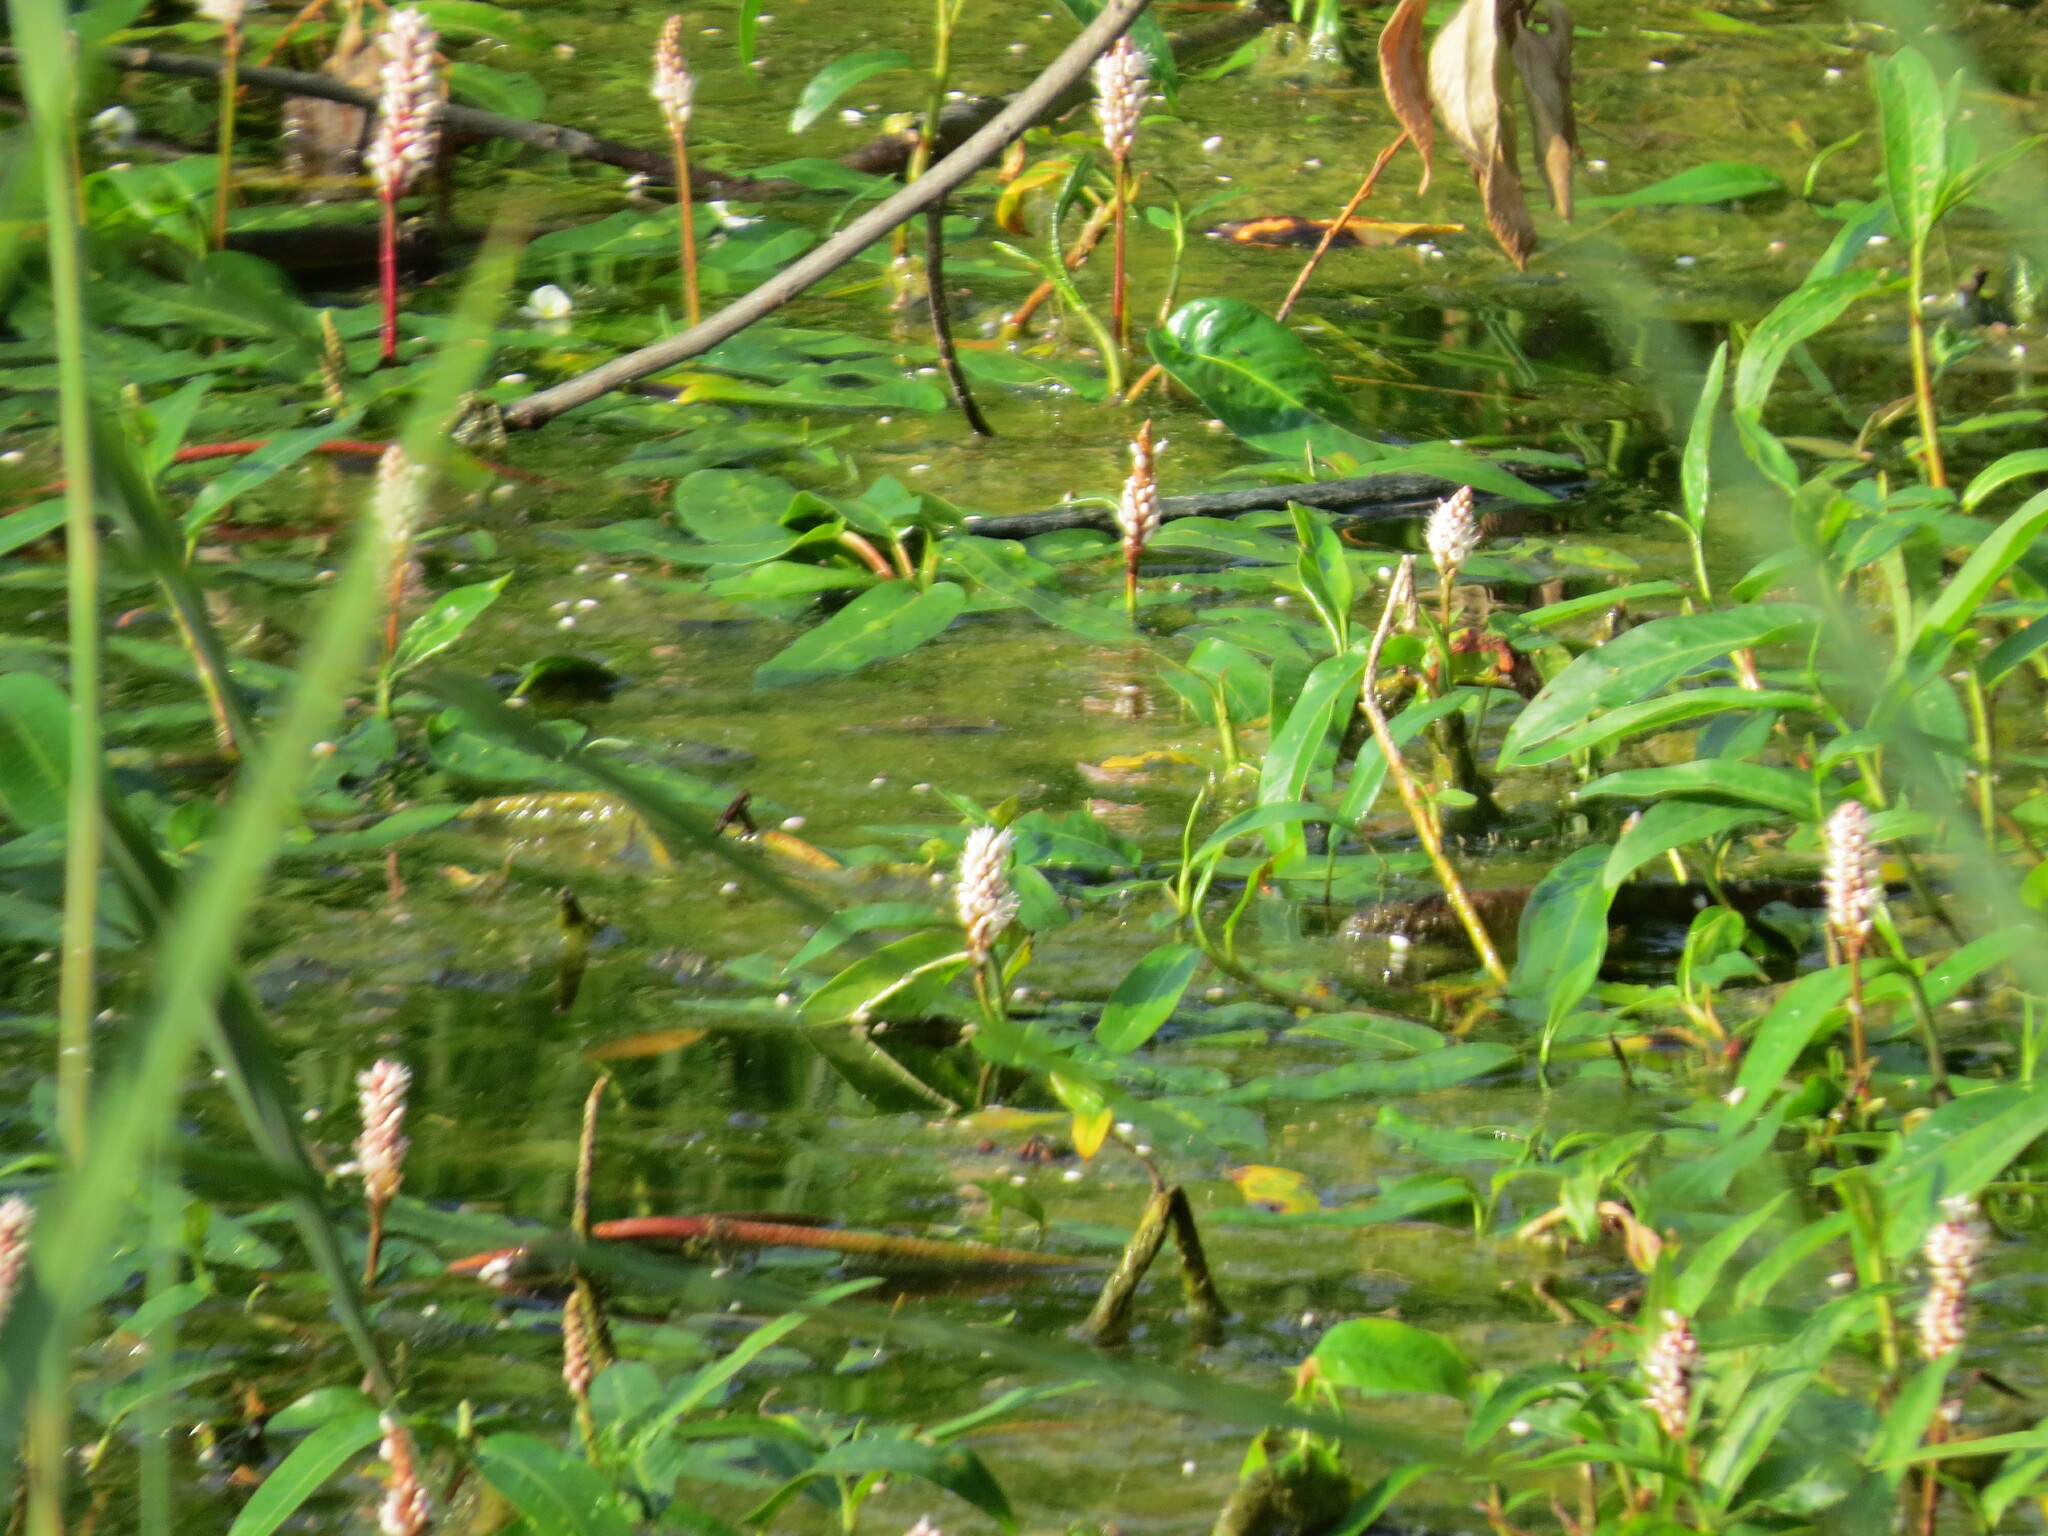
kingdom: Plantae
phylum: Tracheophyta
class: Magnoliopsida
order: Caryophyllales
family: Polygonaceae
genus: Persicaria
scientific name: Persicaria amphibia
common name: Amphibious bistort
